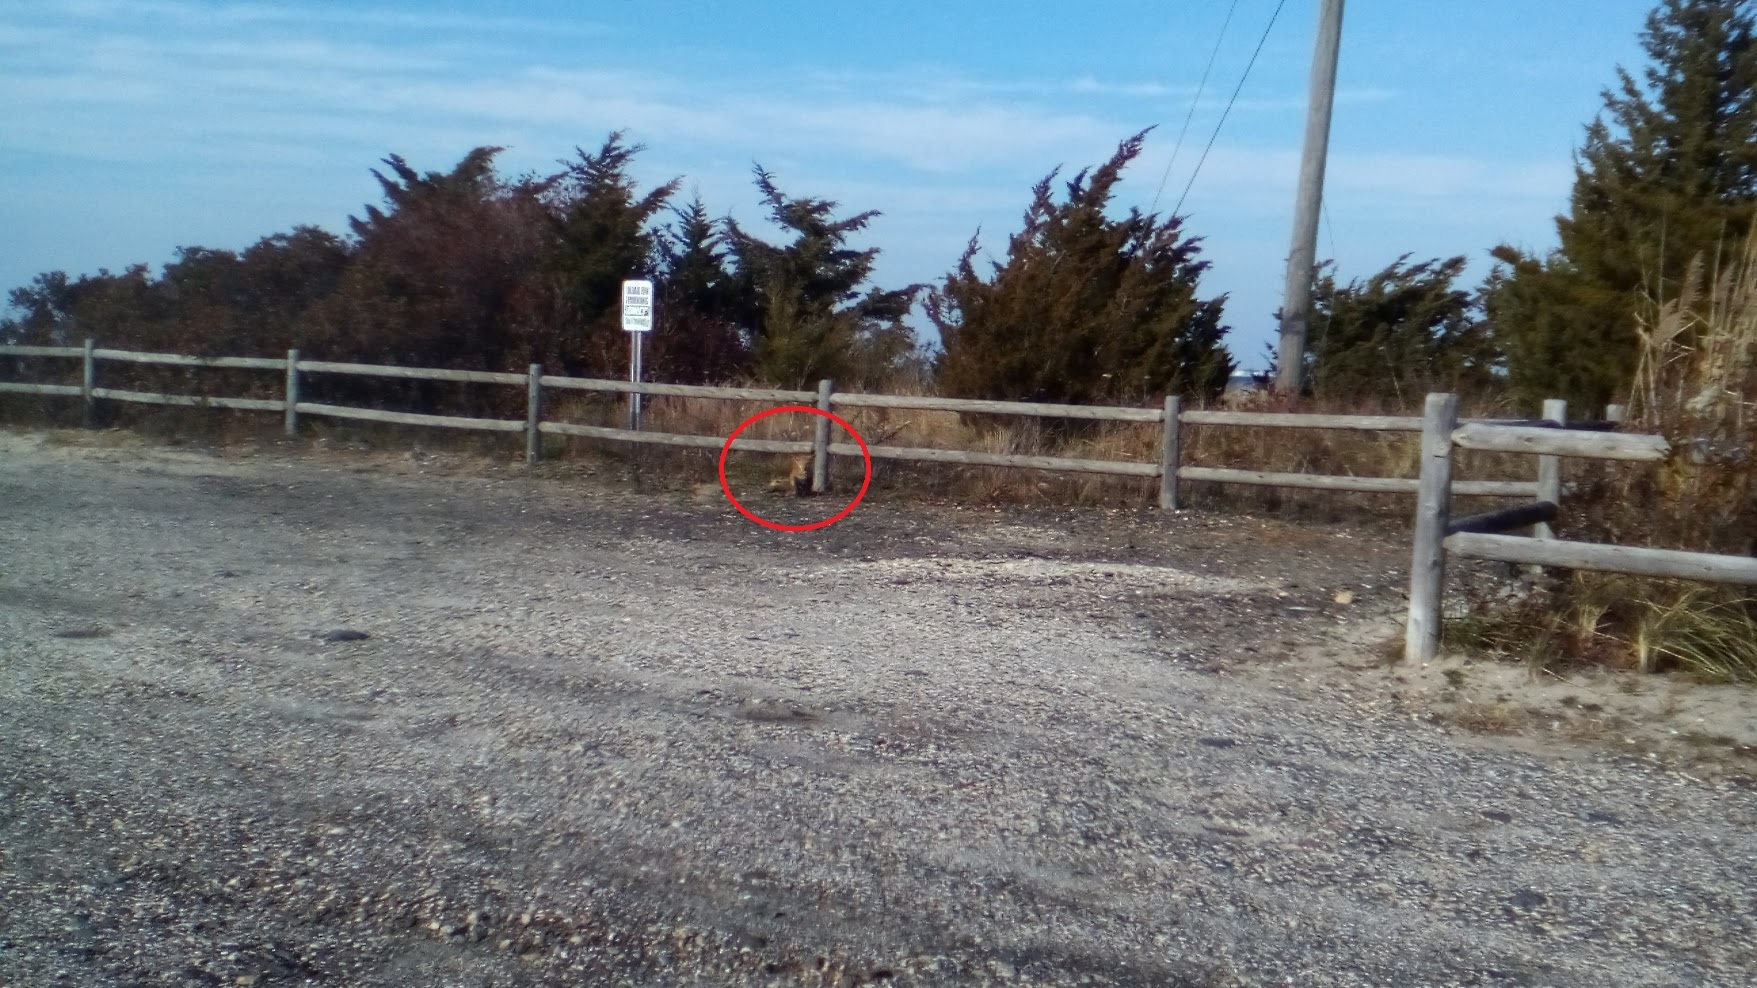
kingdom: Animalia
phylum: Chordata
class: Mammalia
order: Carnivora
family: Canidae
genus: Vulpes
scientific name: Vulpes vulpes
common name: Red fox
